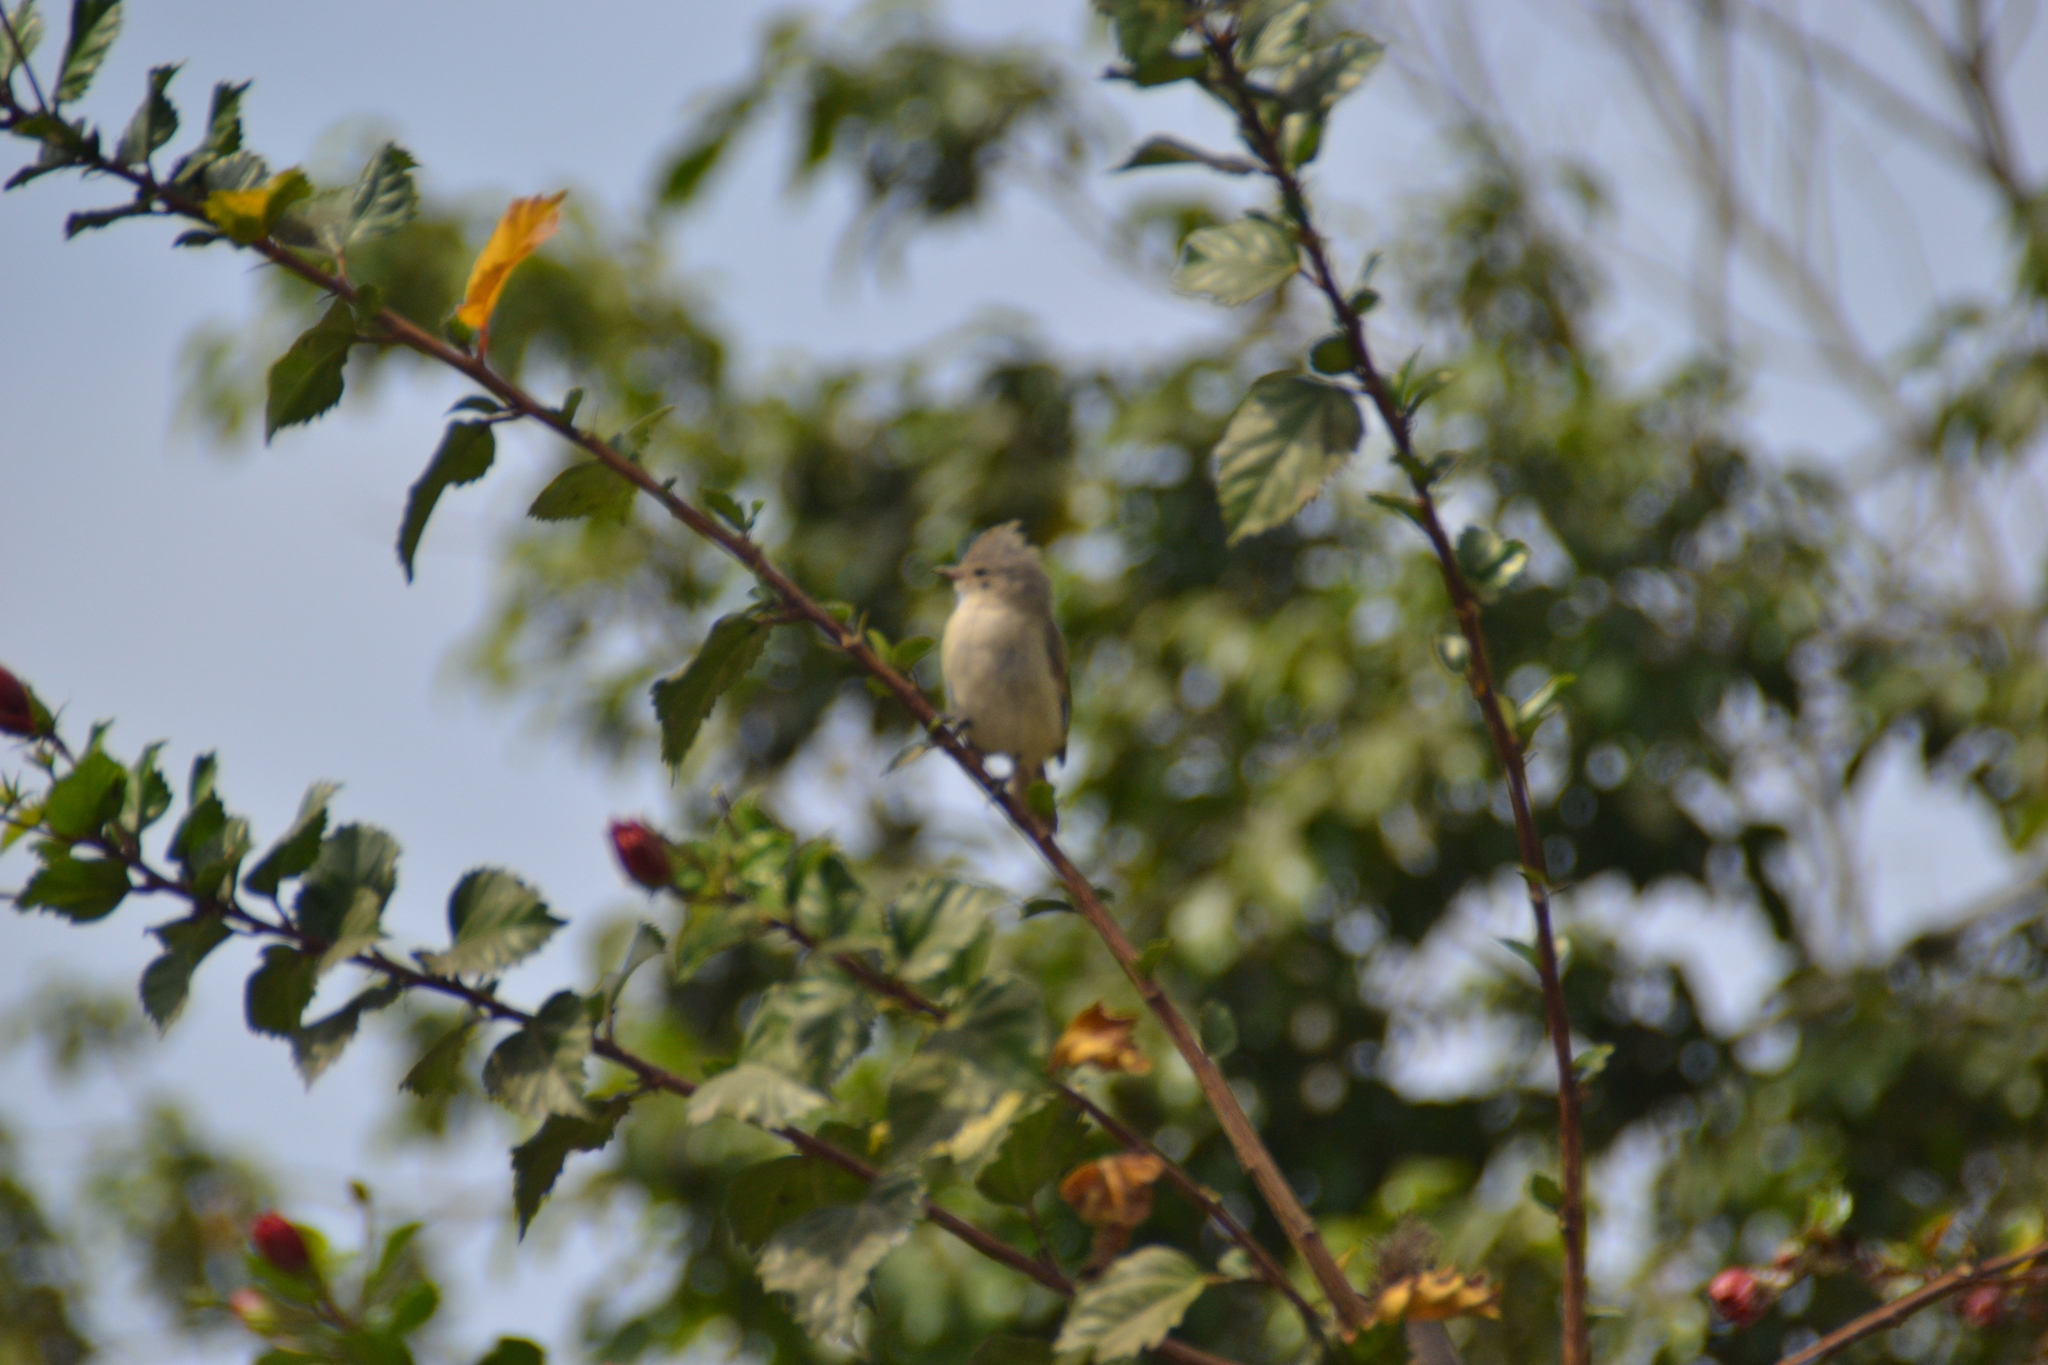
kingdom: Animalia
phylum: Chordata
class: Aves
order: Passeriformes
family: Tyrannidae
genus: Camptostoma
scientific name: Camptostoma obsoletum
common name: Southern beardless-tyrannulet
